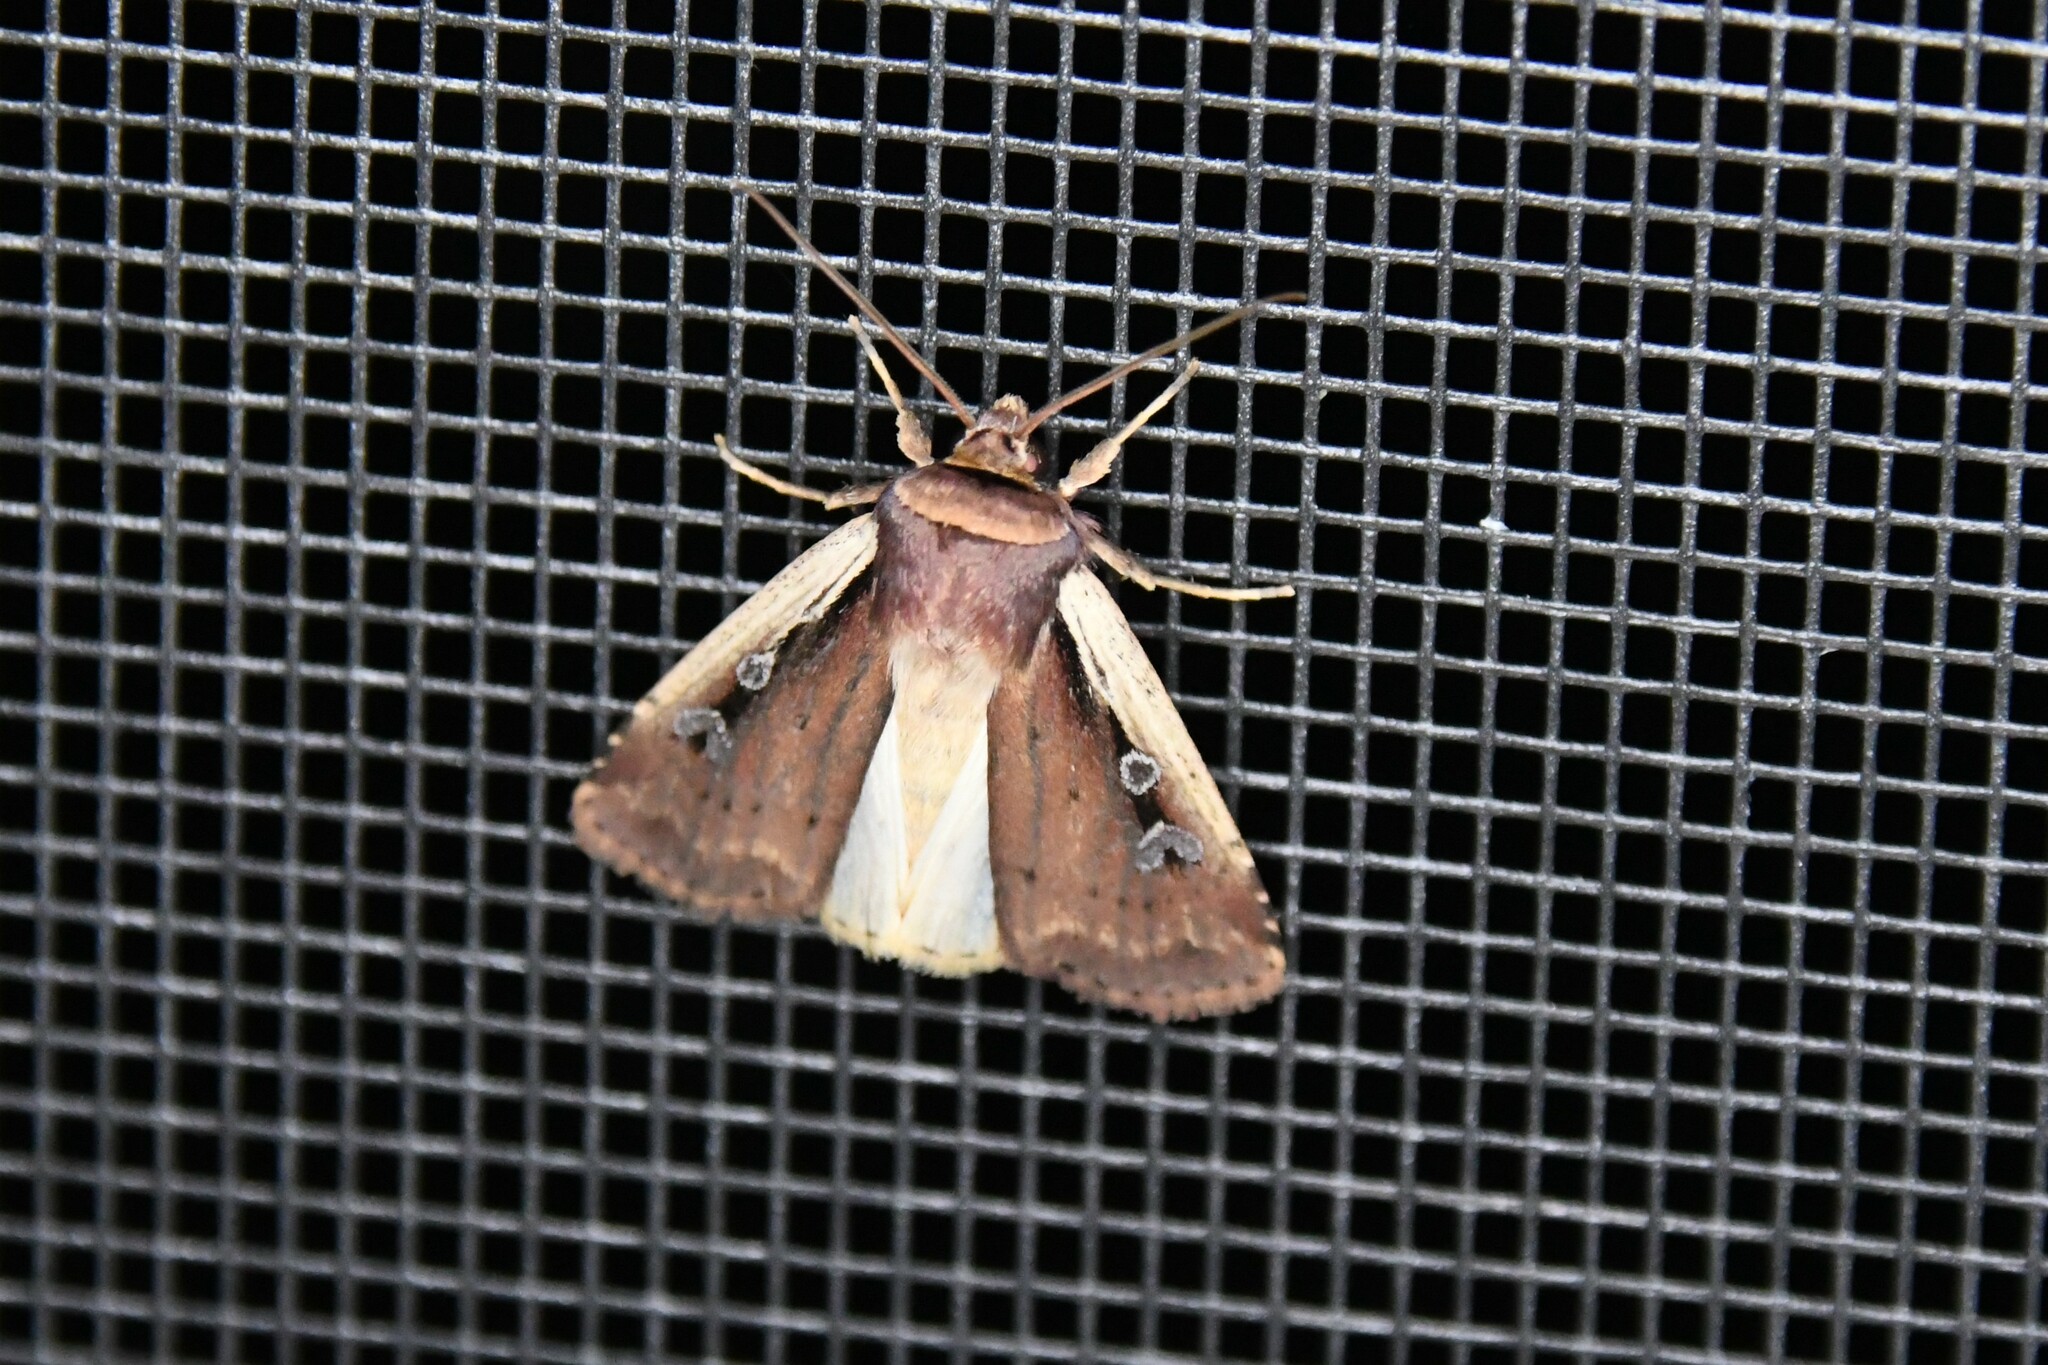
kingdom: Animalia
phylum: Arthropoda
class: Insecta
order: Lepidoptera
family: Noctuidae
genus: Ochropleura
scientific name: Ochropleura implecta
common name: Flame-shouldered dart
